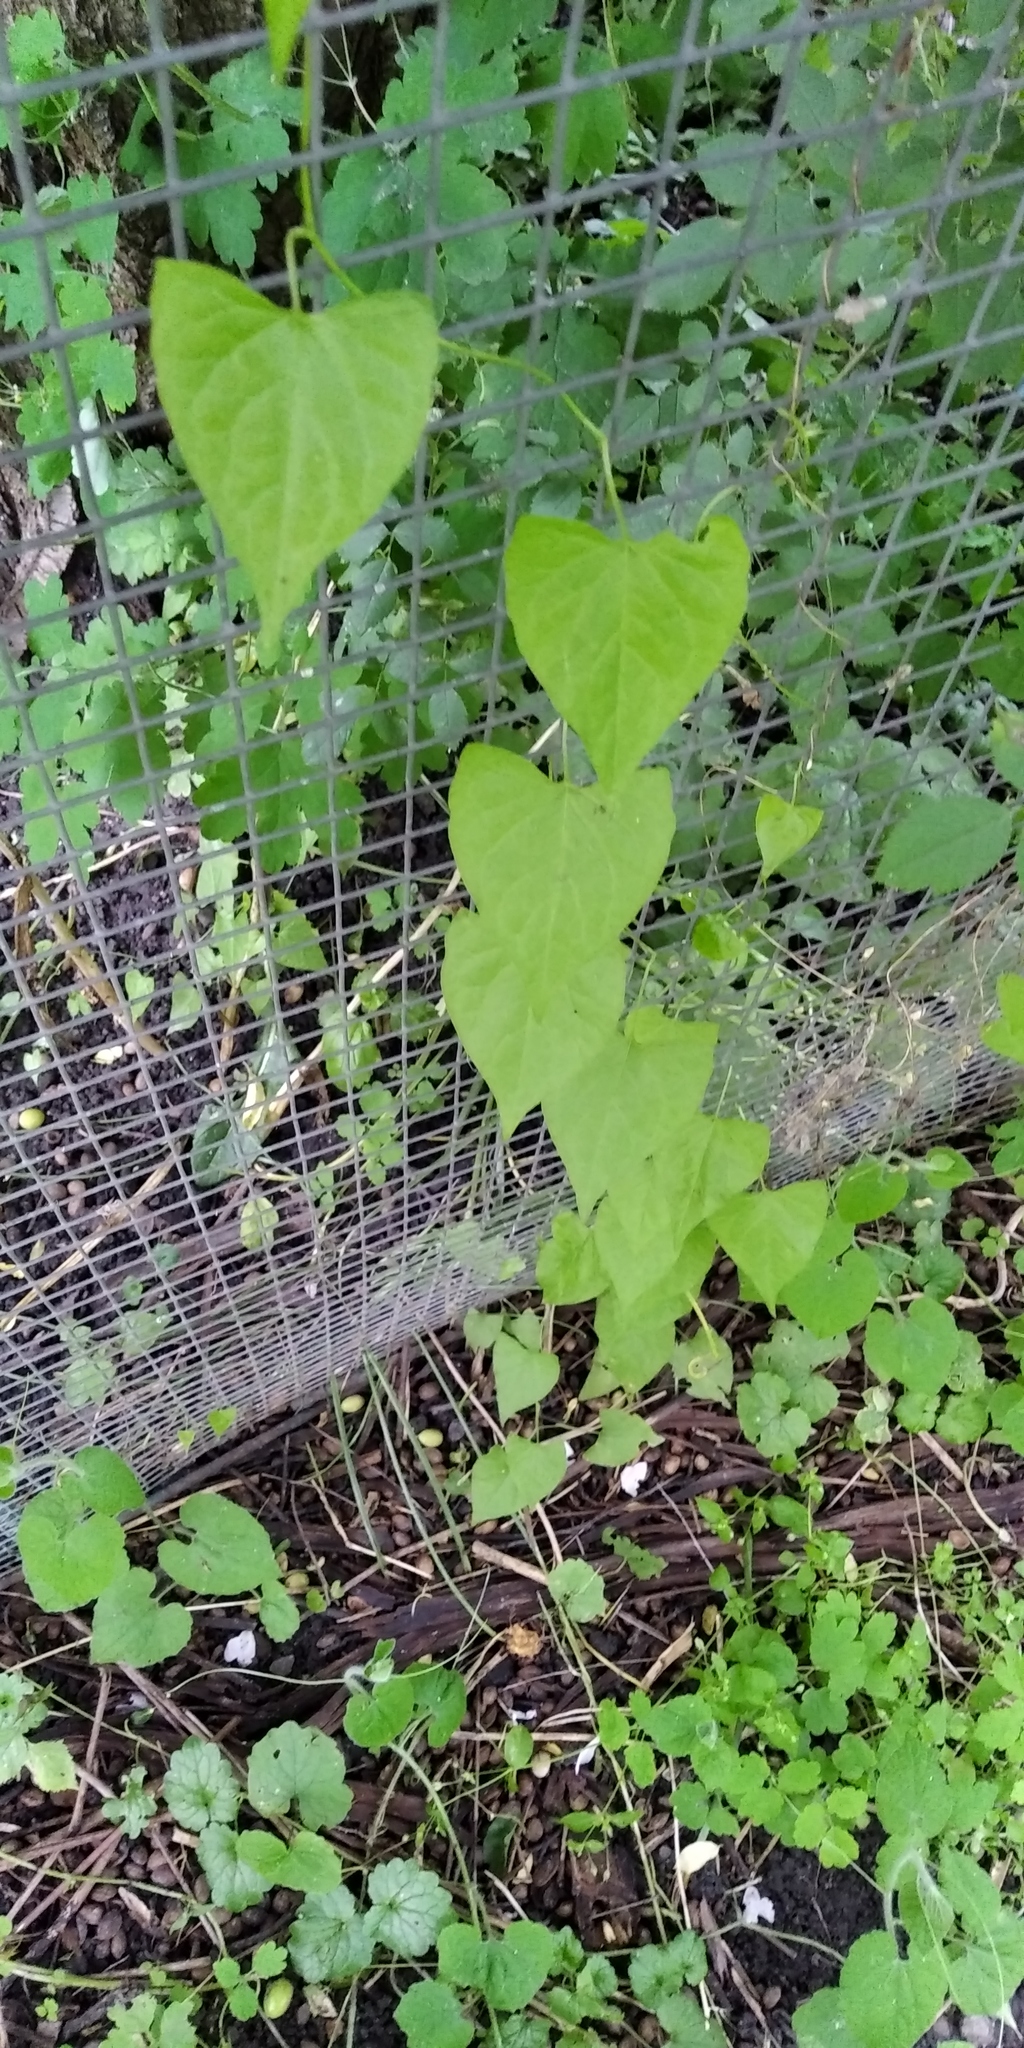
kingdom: Plantae
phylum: Tracheophyta
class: Magnoliopsida
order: Caryophyllales
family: Polygonaceae
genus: Fallopia
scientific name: Fallopia convolvulus
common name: Black bindweed
